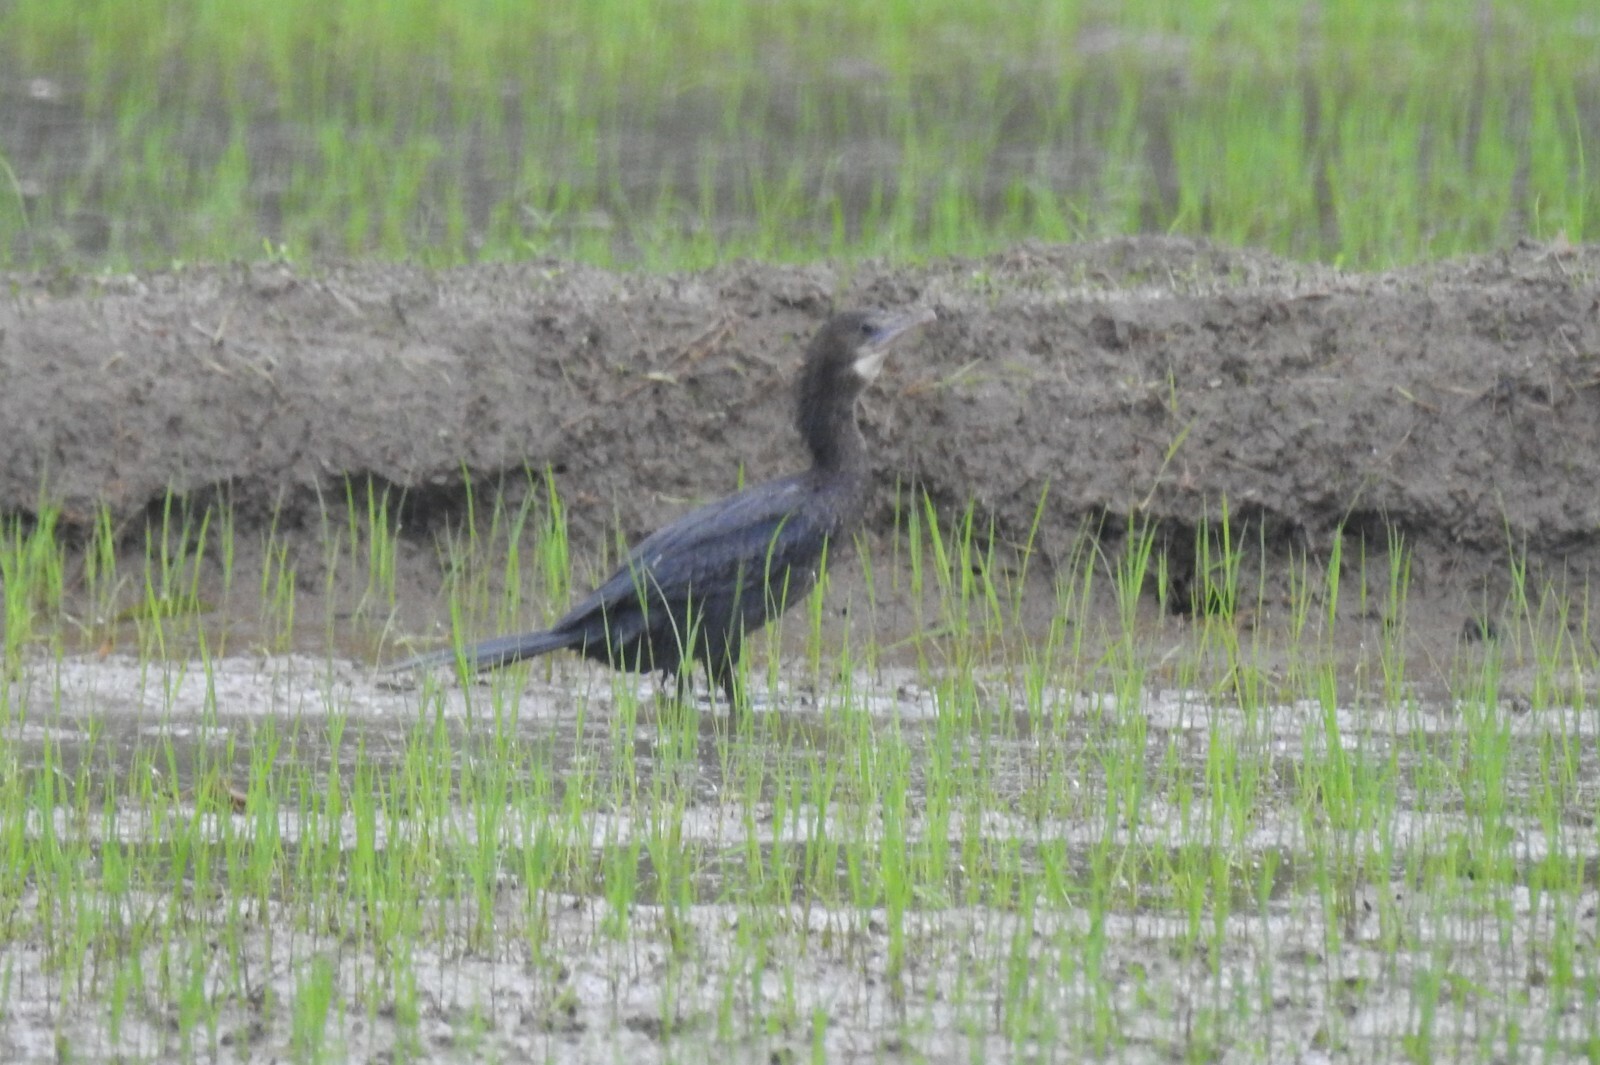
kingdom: Animalia
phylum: Chordata
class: Aves
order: Suliformes
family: Phalacrocoracidae
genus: Microcarbo
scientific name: Microcarbo niger
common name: Little cormorant
